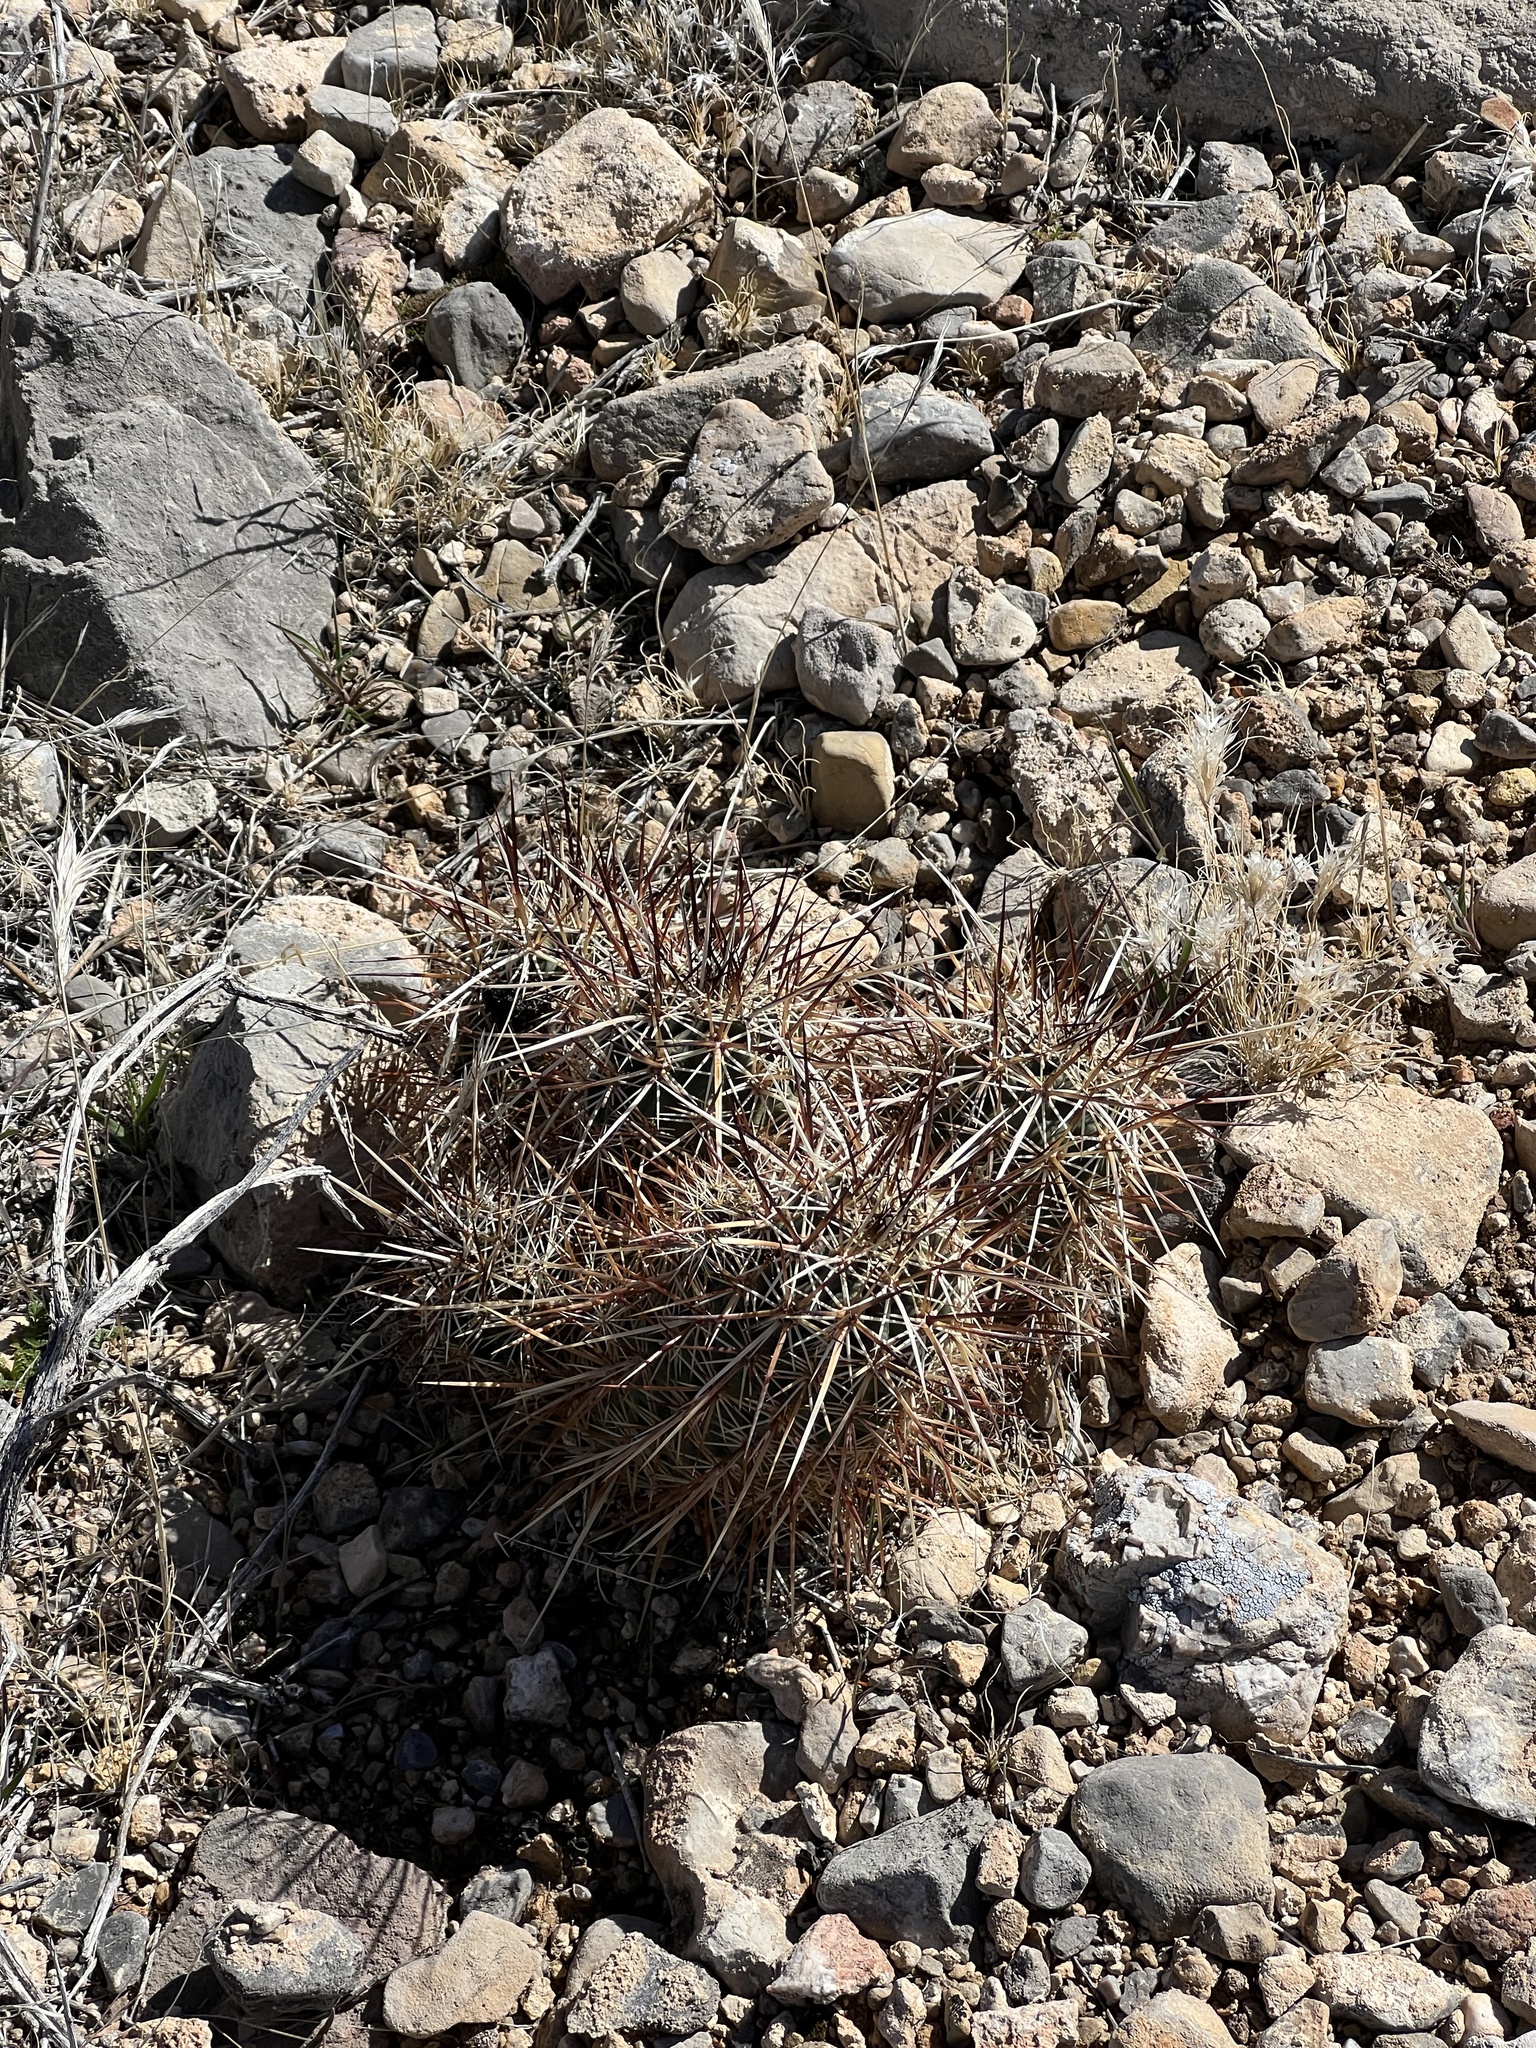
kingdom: Plantae
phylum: Tracheophyta
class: Magnoliopsida
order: Caryophyllales
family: Cactaceae
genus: Echinocereus
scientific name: Echinocereus engelmannii
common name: Engelmann's hedgehog cactus
